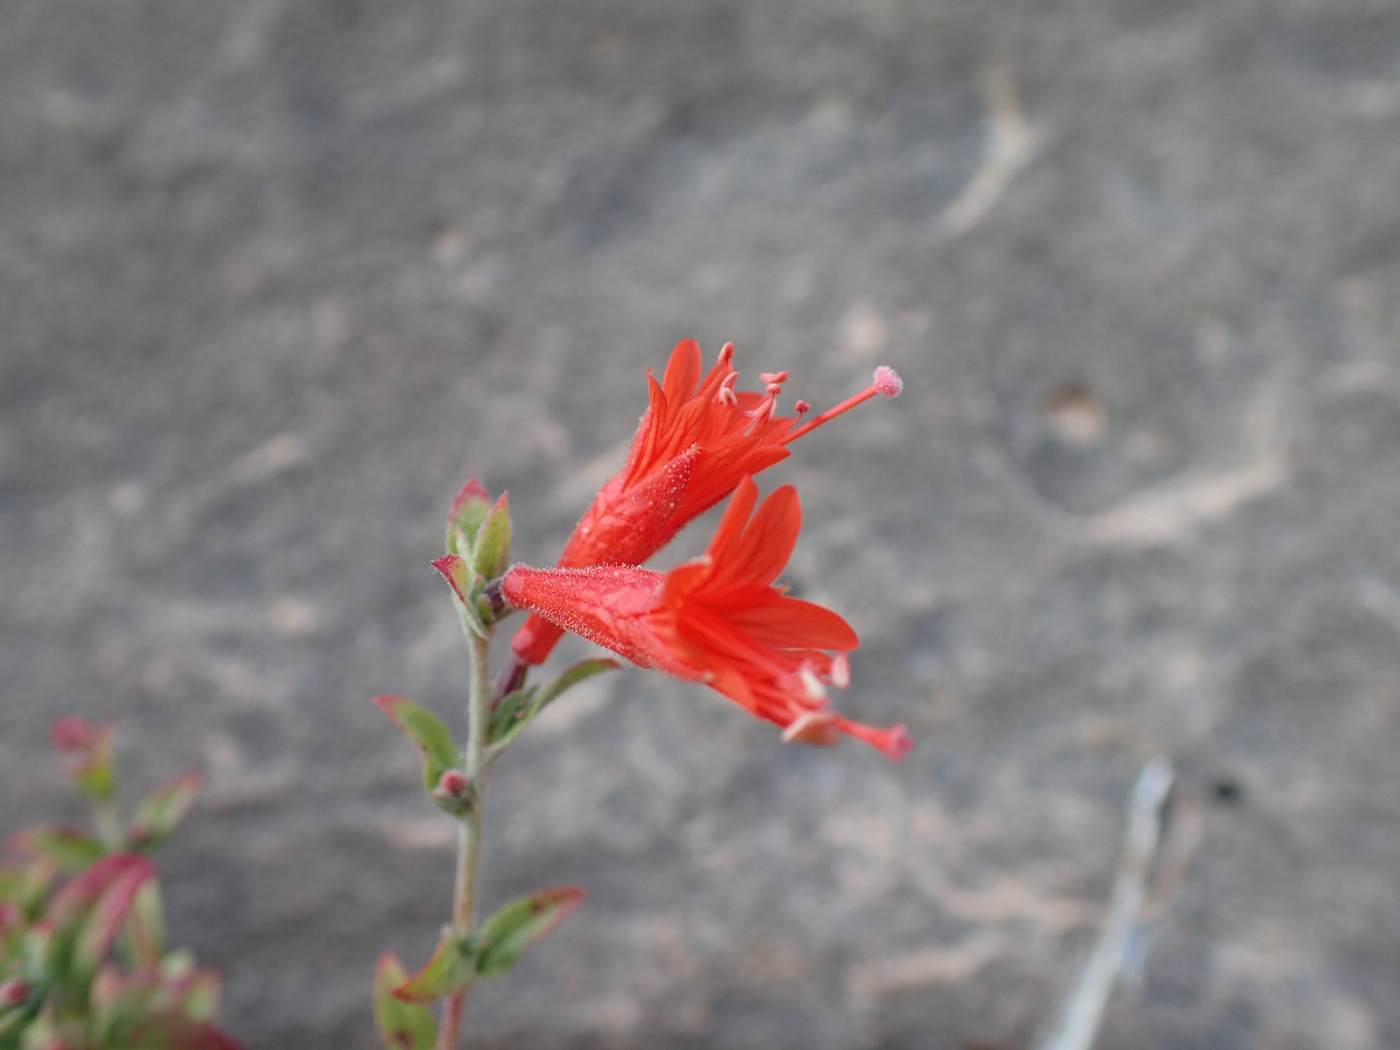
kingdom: Plantae
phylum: Tracheophyta
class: Magnoliopsida
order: Myrtales
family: Onagraceae
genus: Epilobium
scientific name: Epilobium canum
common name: California-fuchsia
